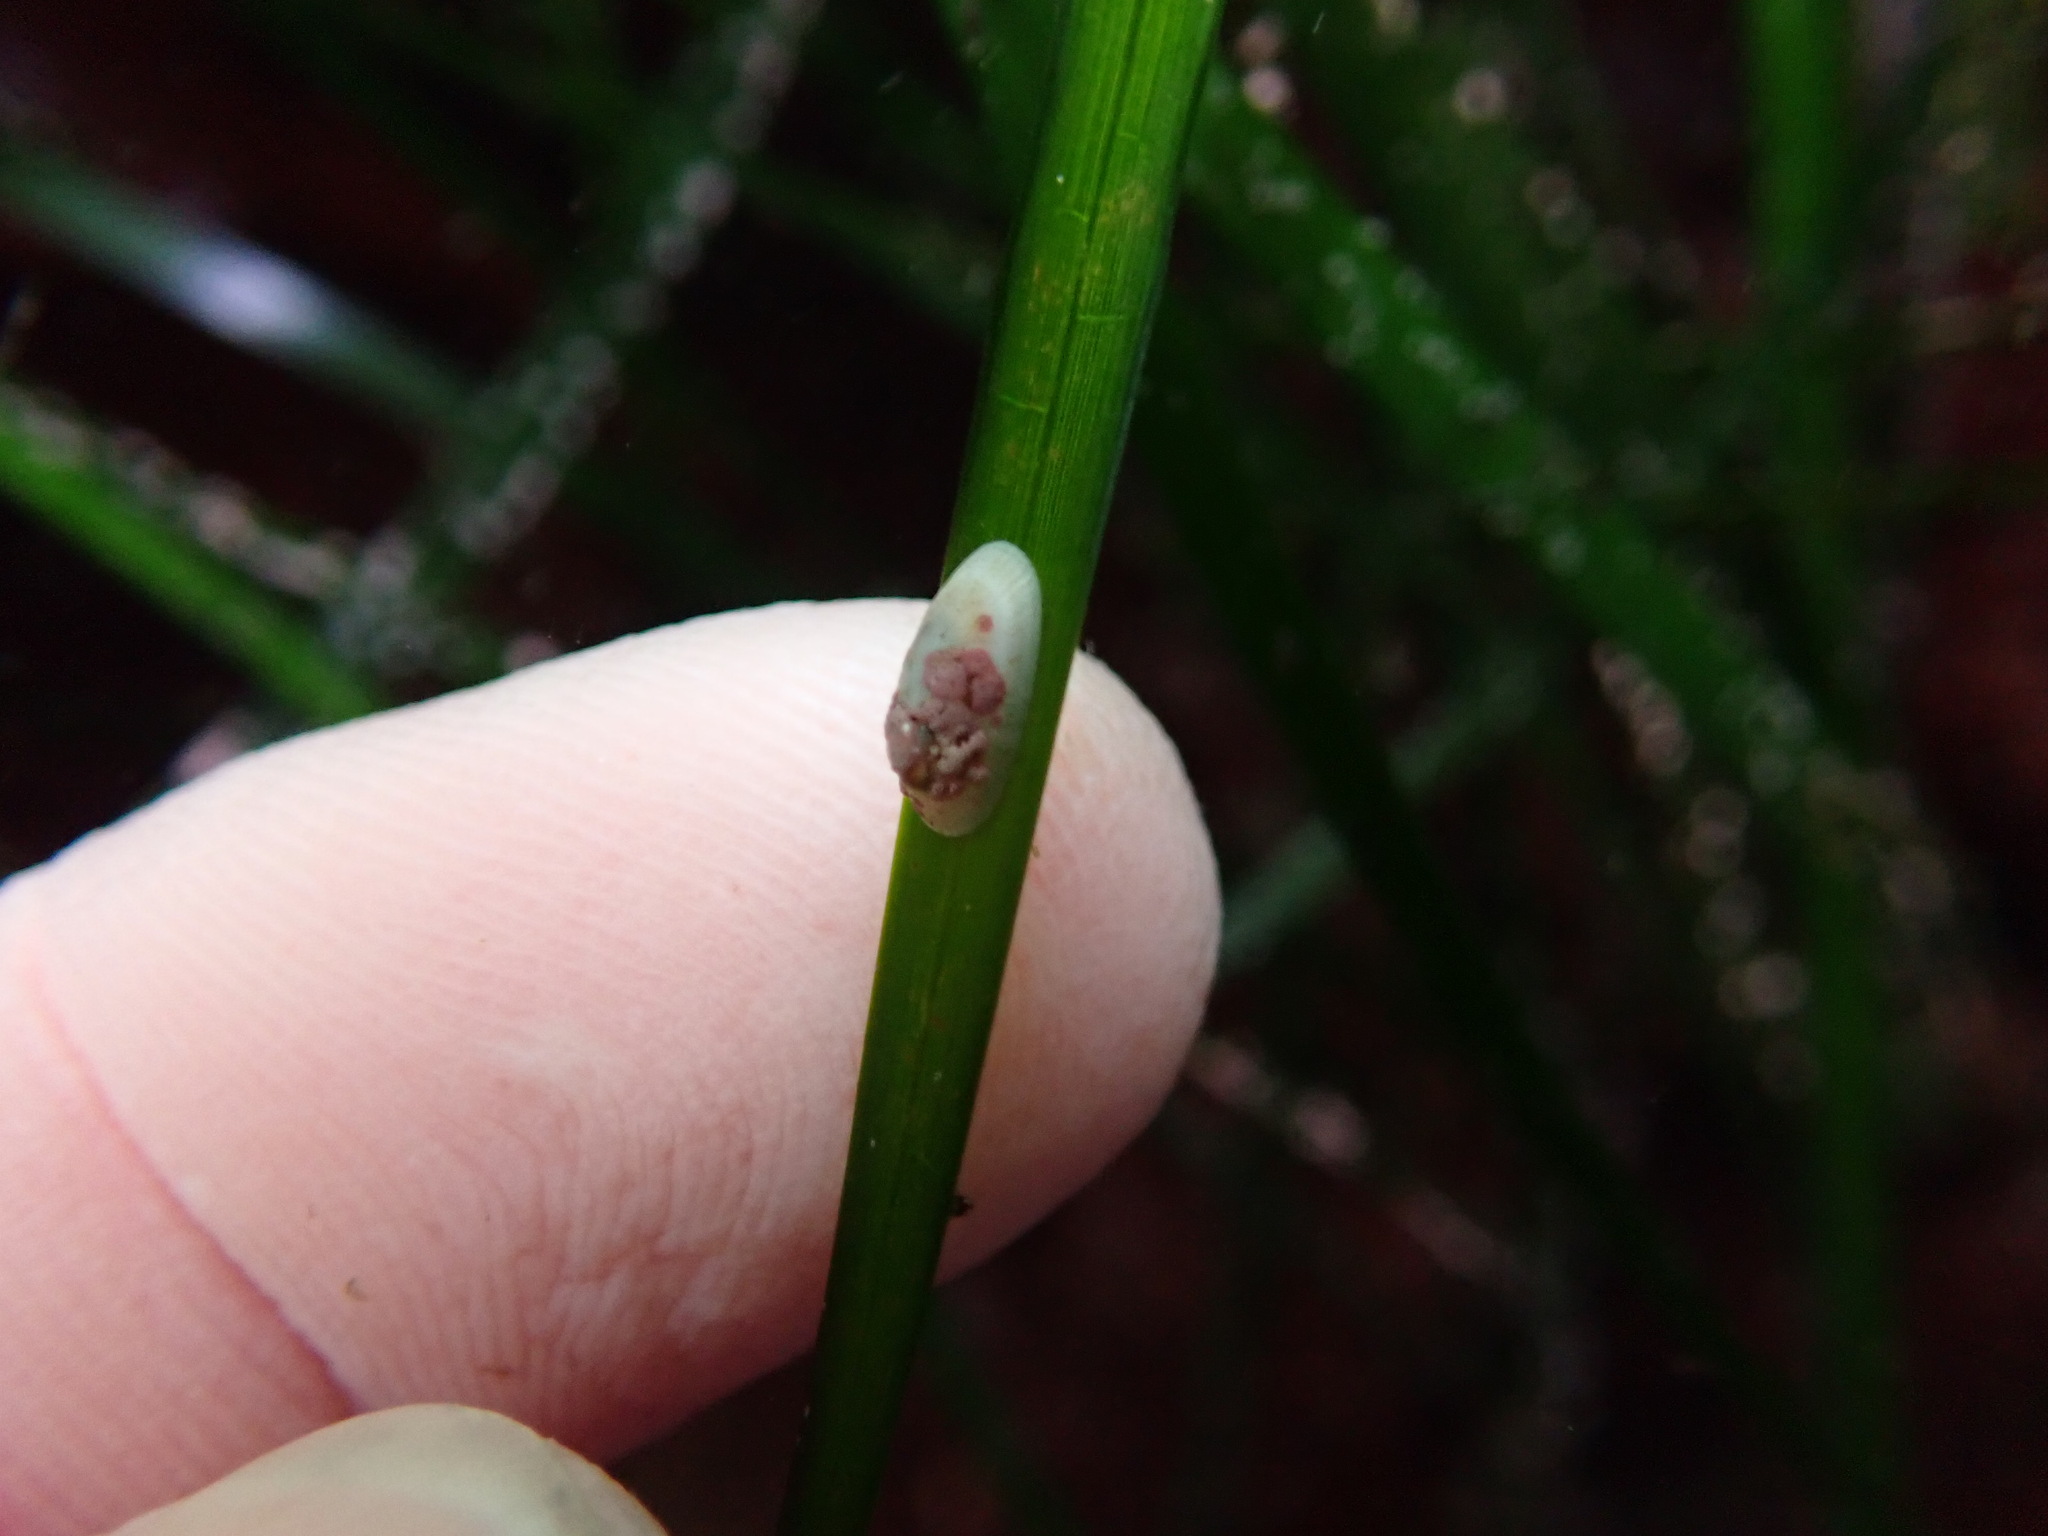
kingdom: Animalia
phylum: Mollusca
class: Gastropoda
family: Lottiidae
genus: Tectura
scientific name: Tectura paleacea
